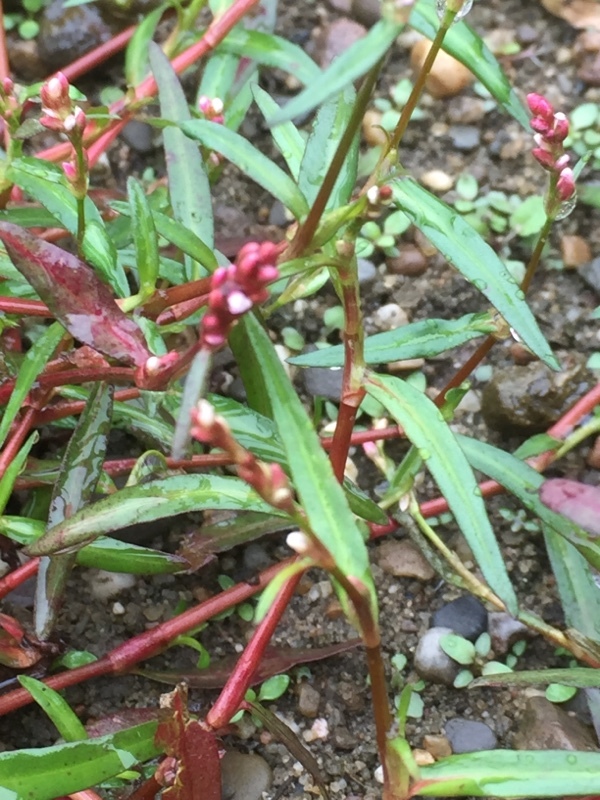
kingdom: Plantae
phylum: Tracheophyta
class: Magnoliopsida
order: Caryophyllales
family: Polygonaceae
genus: Persicaria
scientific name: Persicaria minor
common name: Small water-pepper
